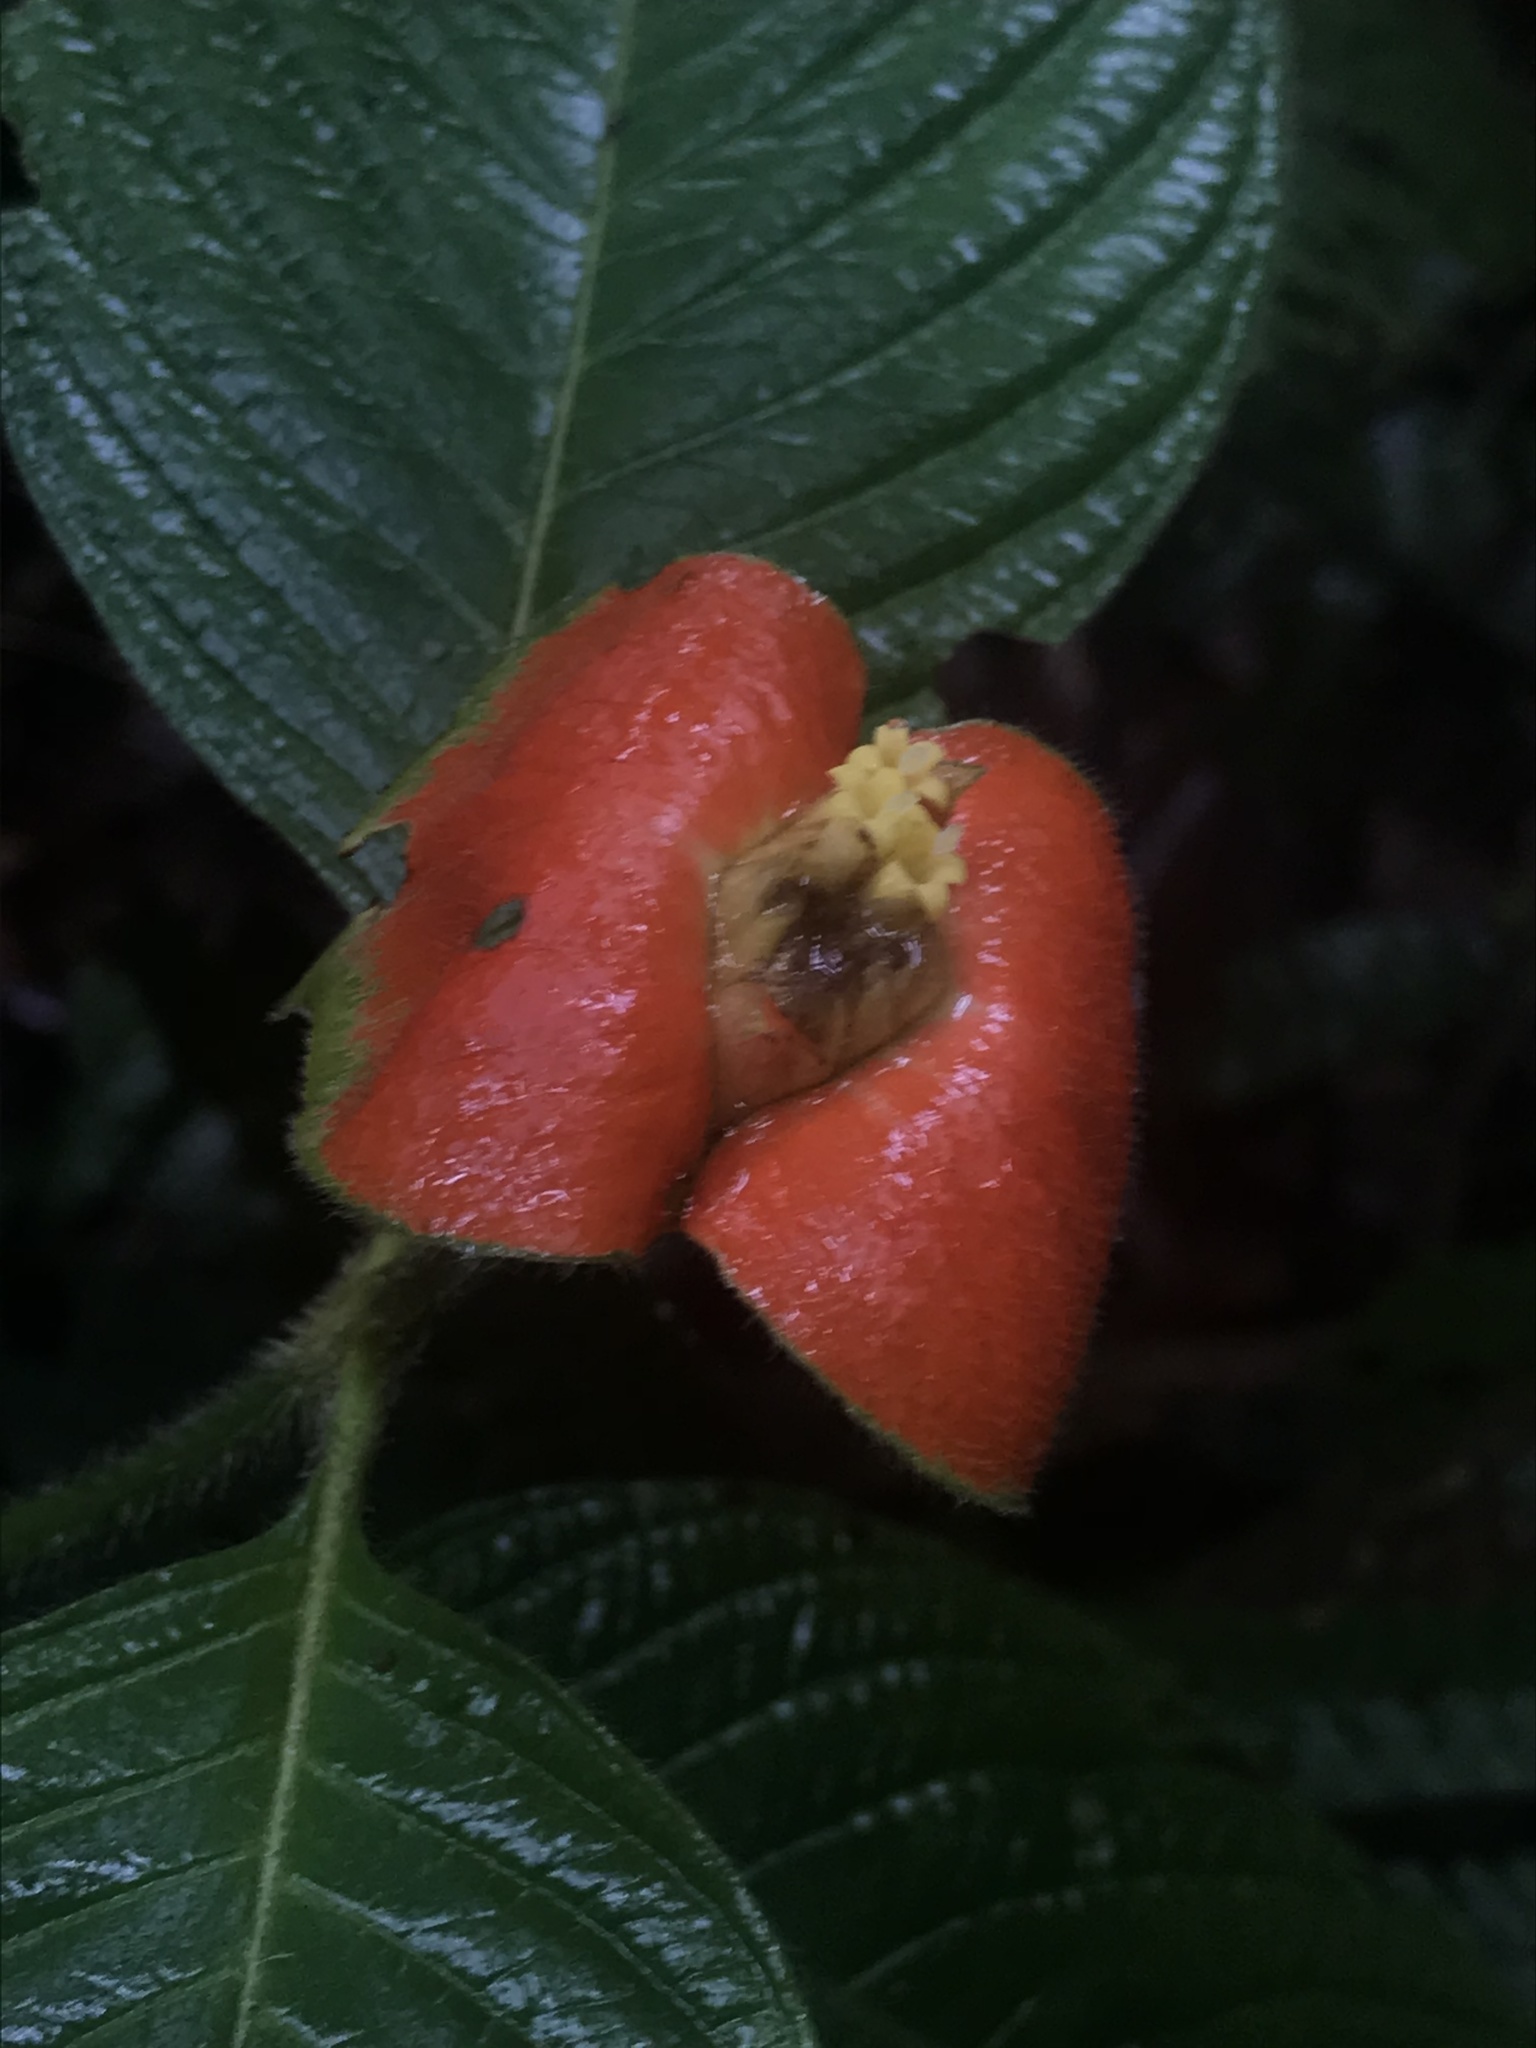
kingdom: Plantae
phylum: Tracheophyta
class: Magnoliopsida
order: Gentianales
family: Rubiaceae
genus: Palicourea
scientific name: Palicourea tomentosa
